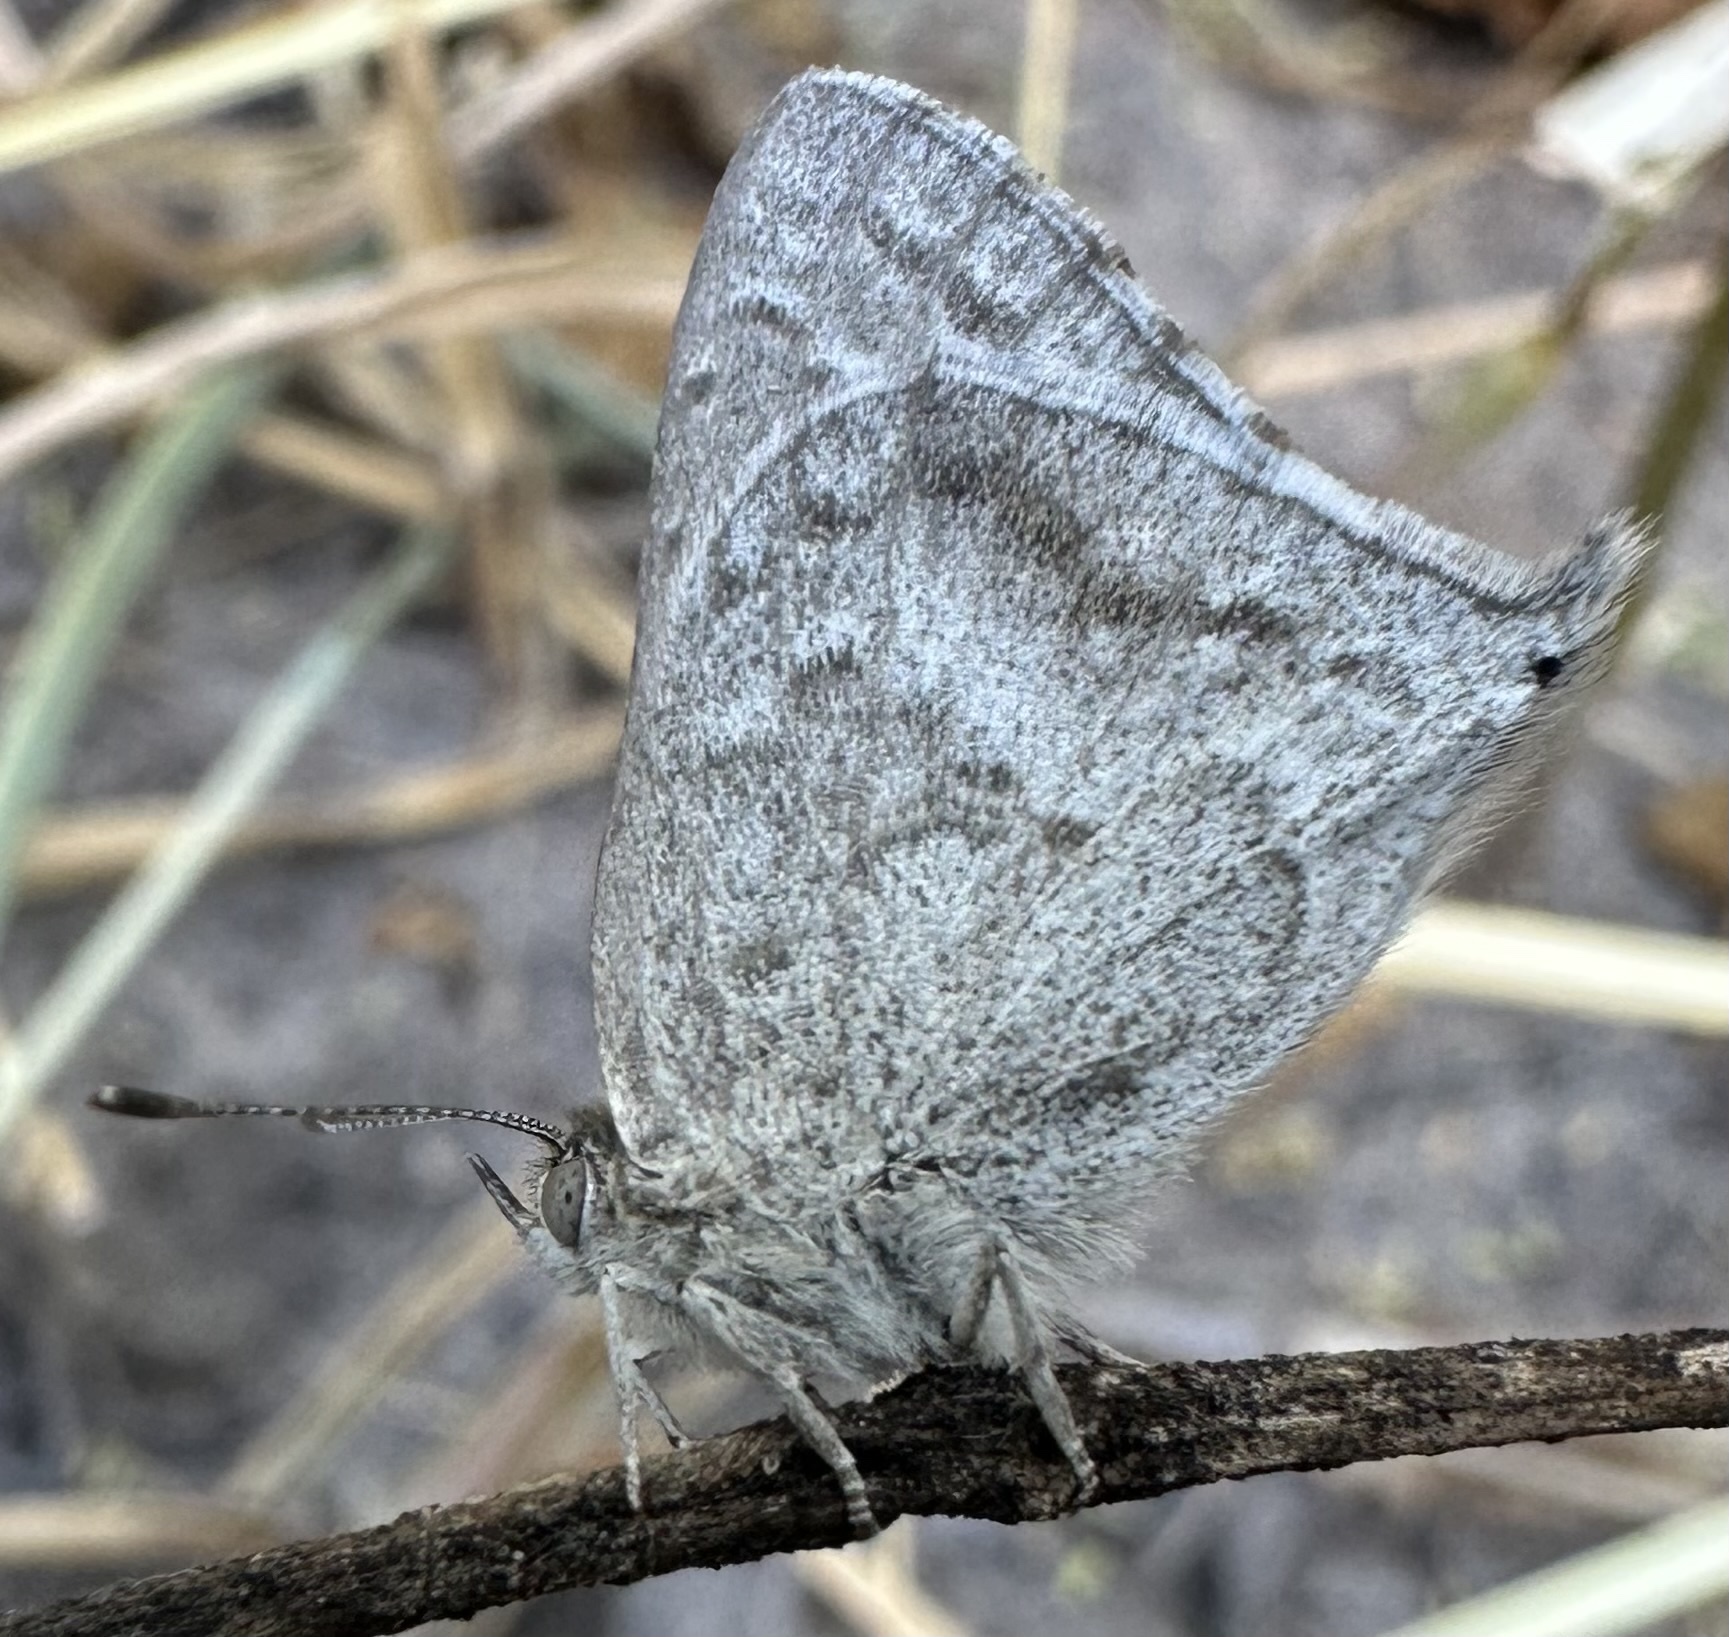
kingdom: Animalia
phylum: Arthropoda
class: Insecta
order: Lepidoptera
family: Lycaenidae
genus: Leptomyrina
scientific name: Leptomyrina henningi
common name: Henning's black-eye
